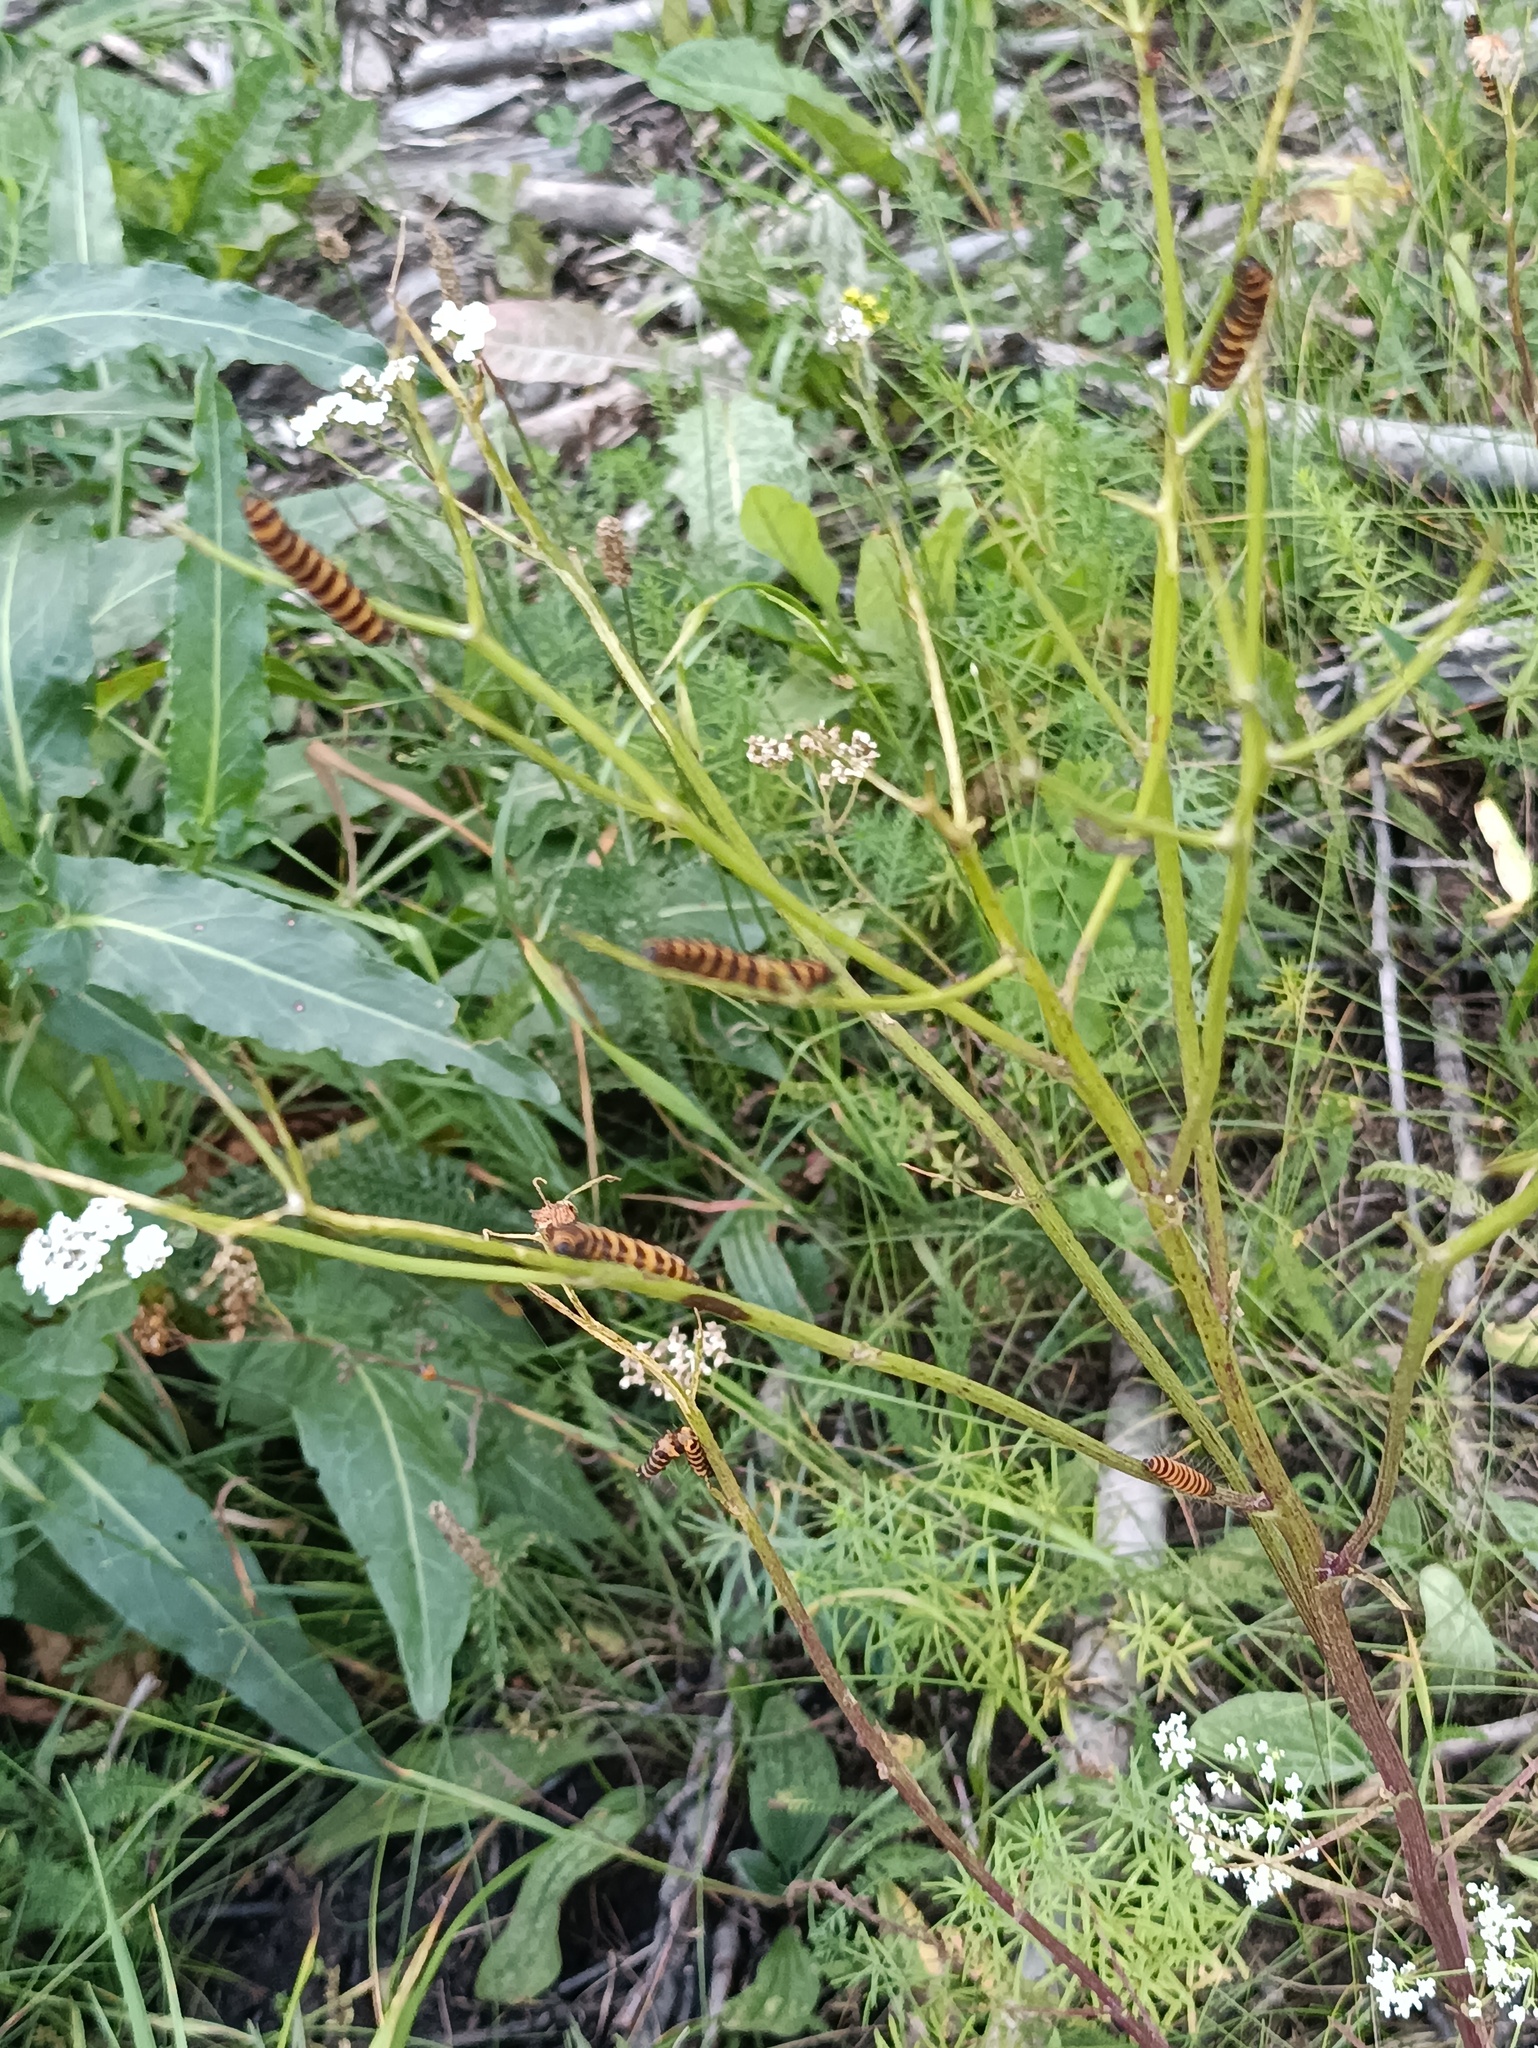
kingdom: Animalia
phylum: Arthropoda
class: Insecta
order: Lepidoptera
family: Erebidae
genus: Tyria
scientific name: Tyria jacobaeae
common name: Cinnabar
